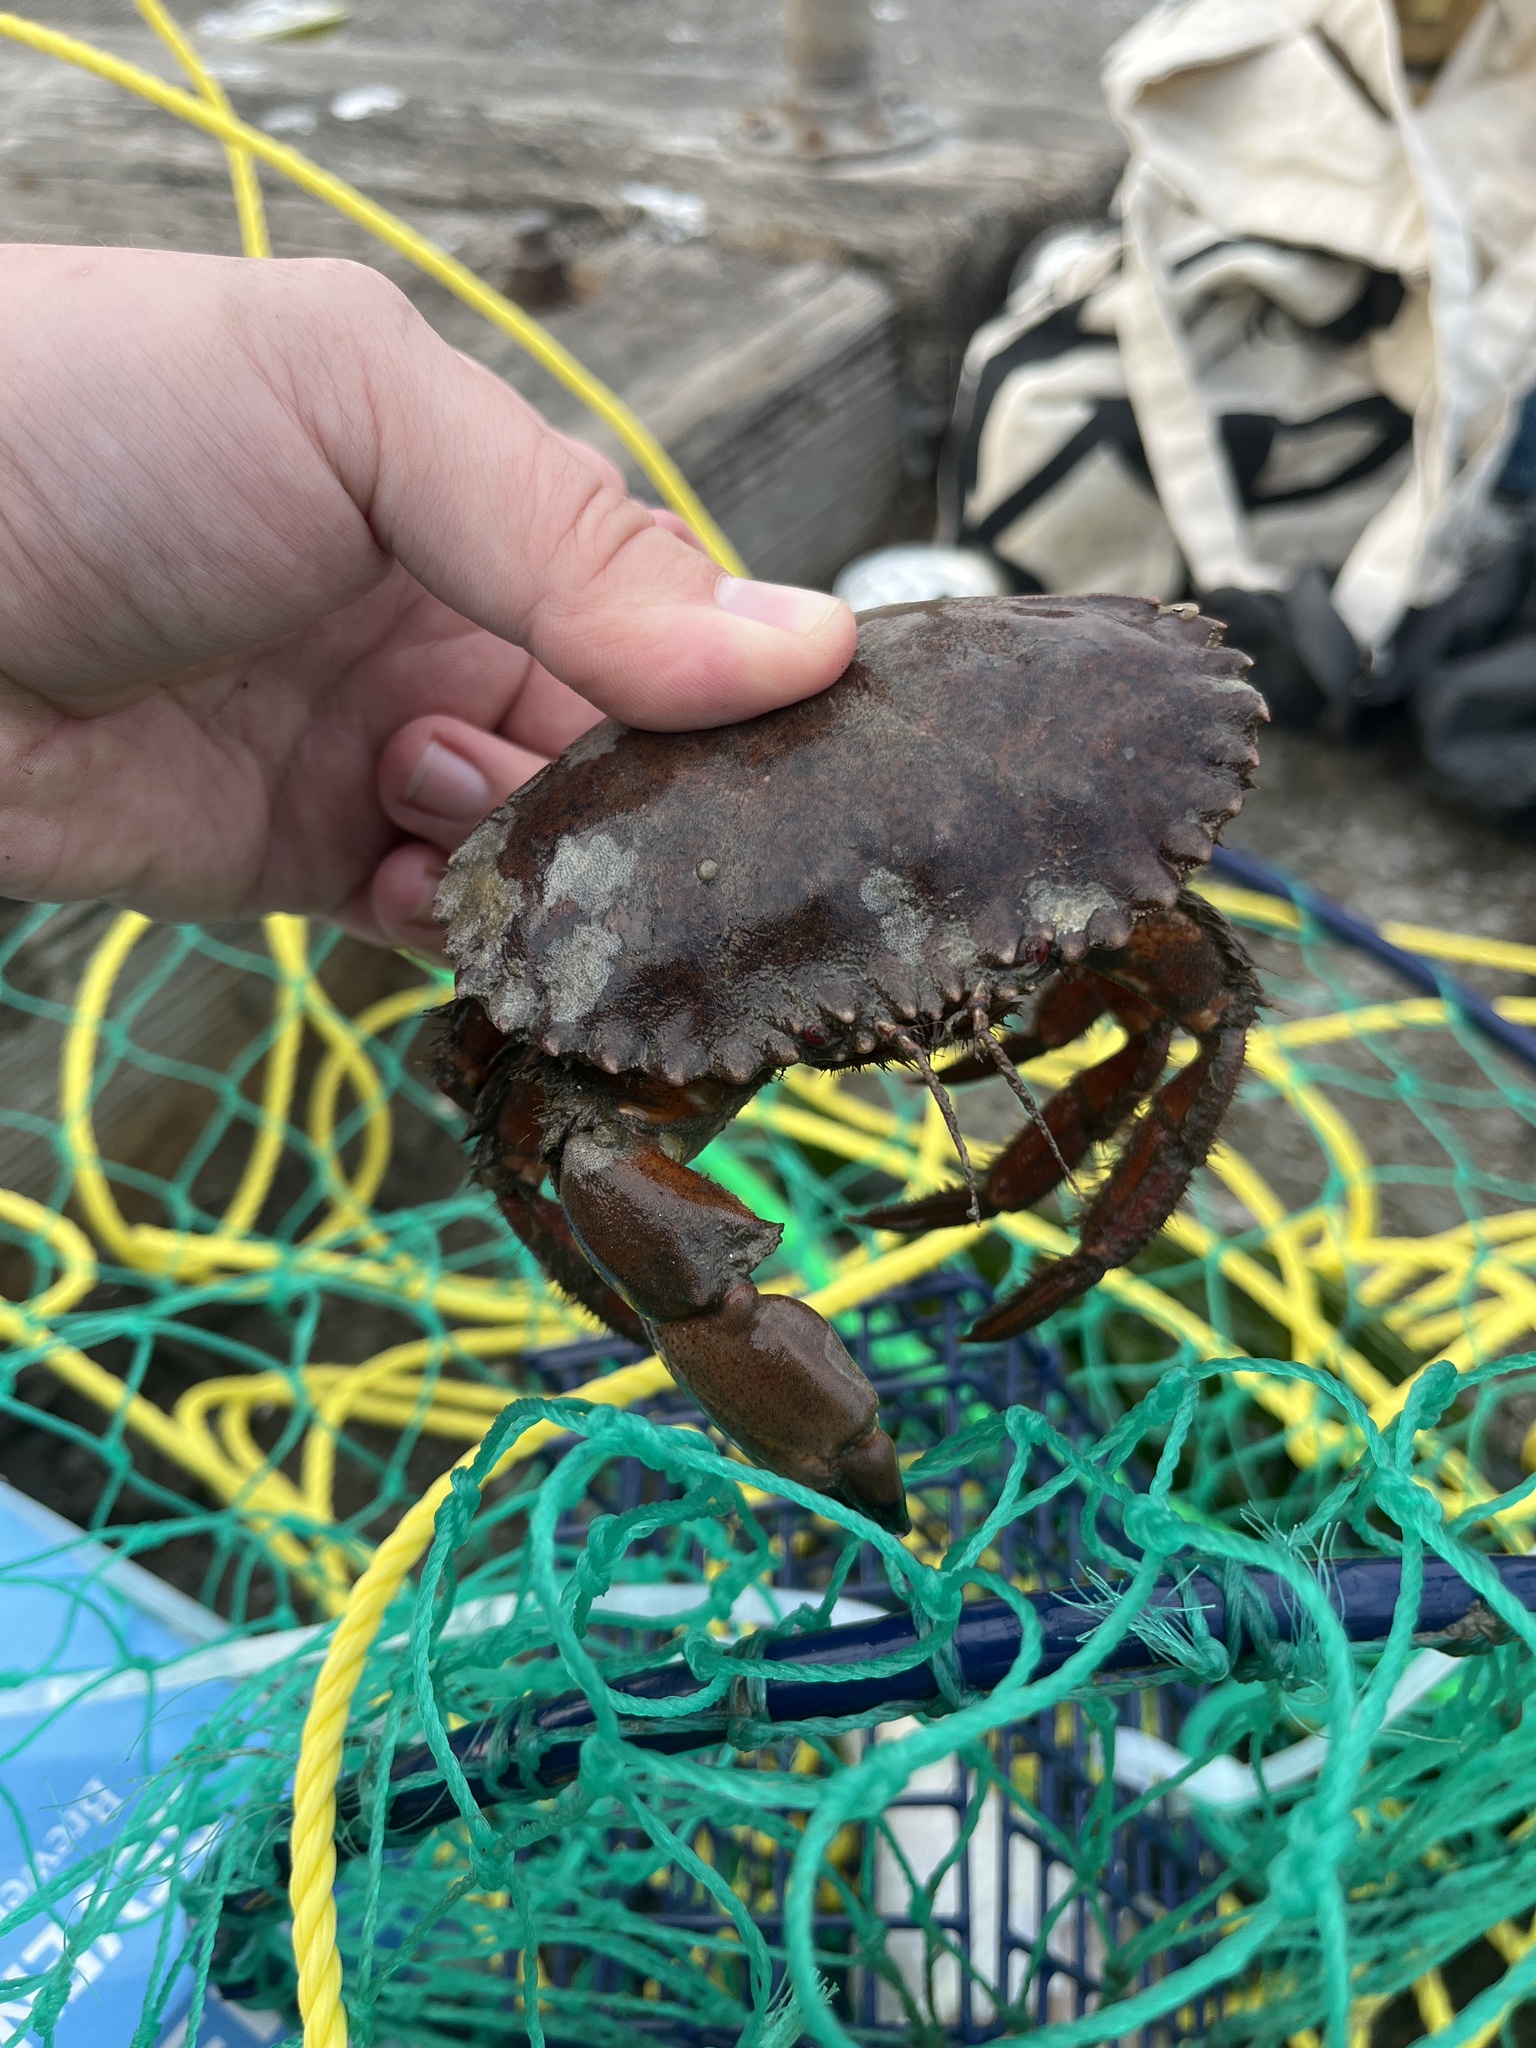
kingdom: Animalia
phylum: Arthropoda
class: Malacostraca
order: Decapoda
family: Cancridae
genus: Romaleon
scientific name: Romaleon antennarium
